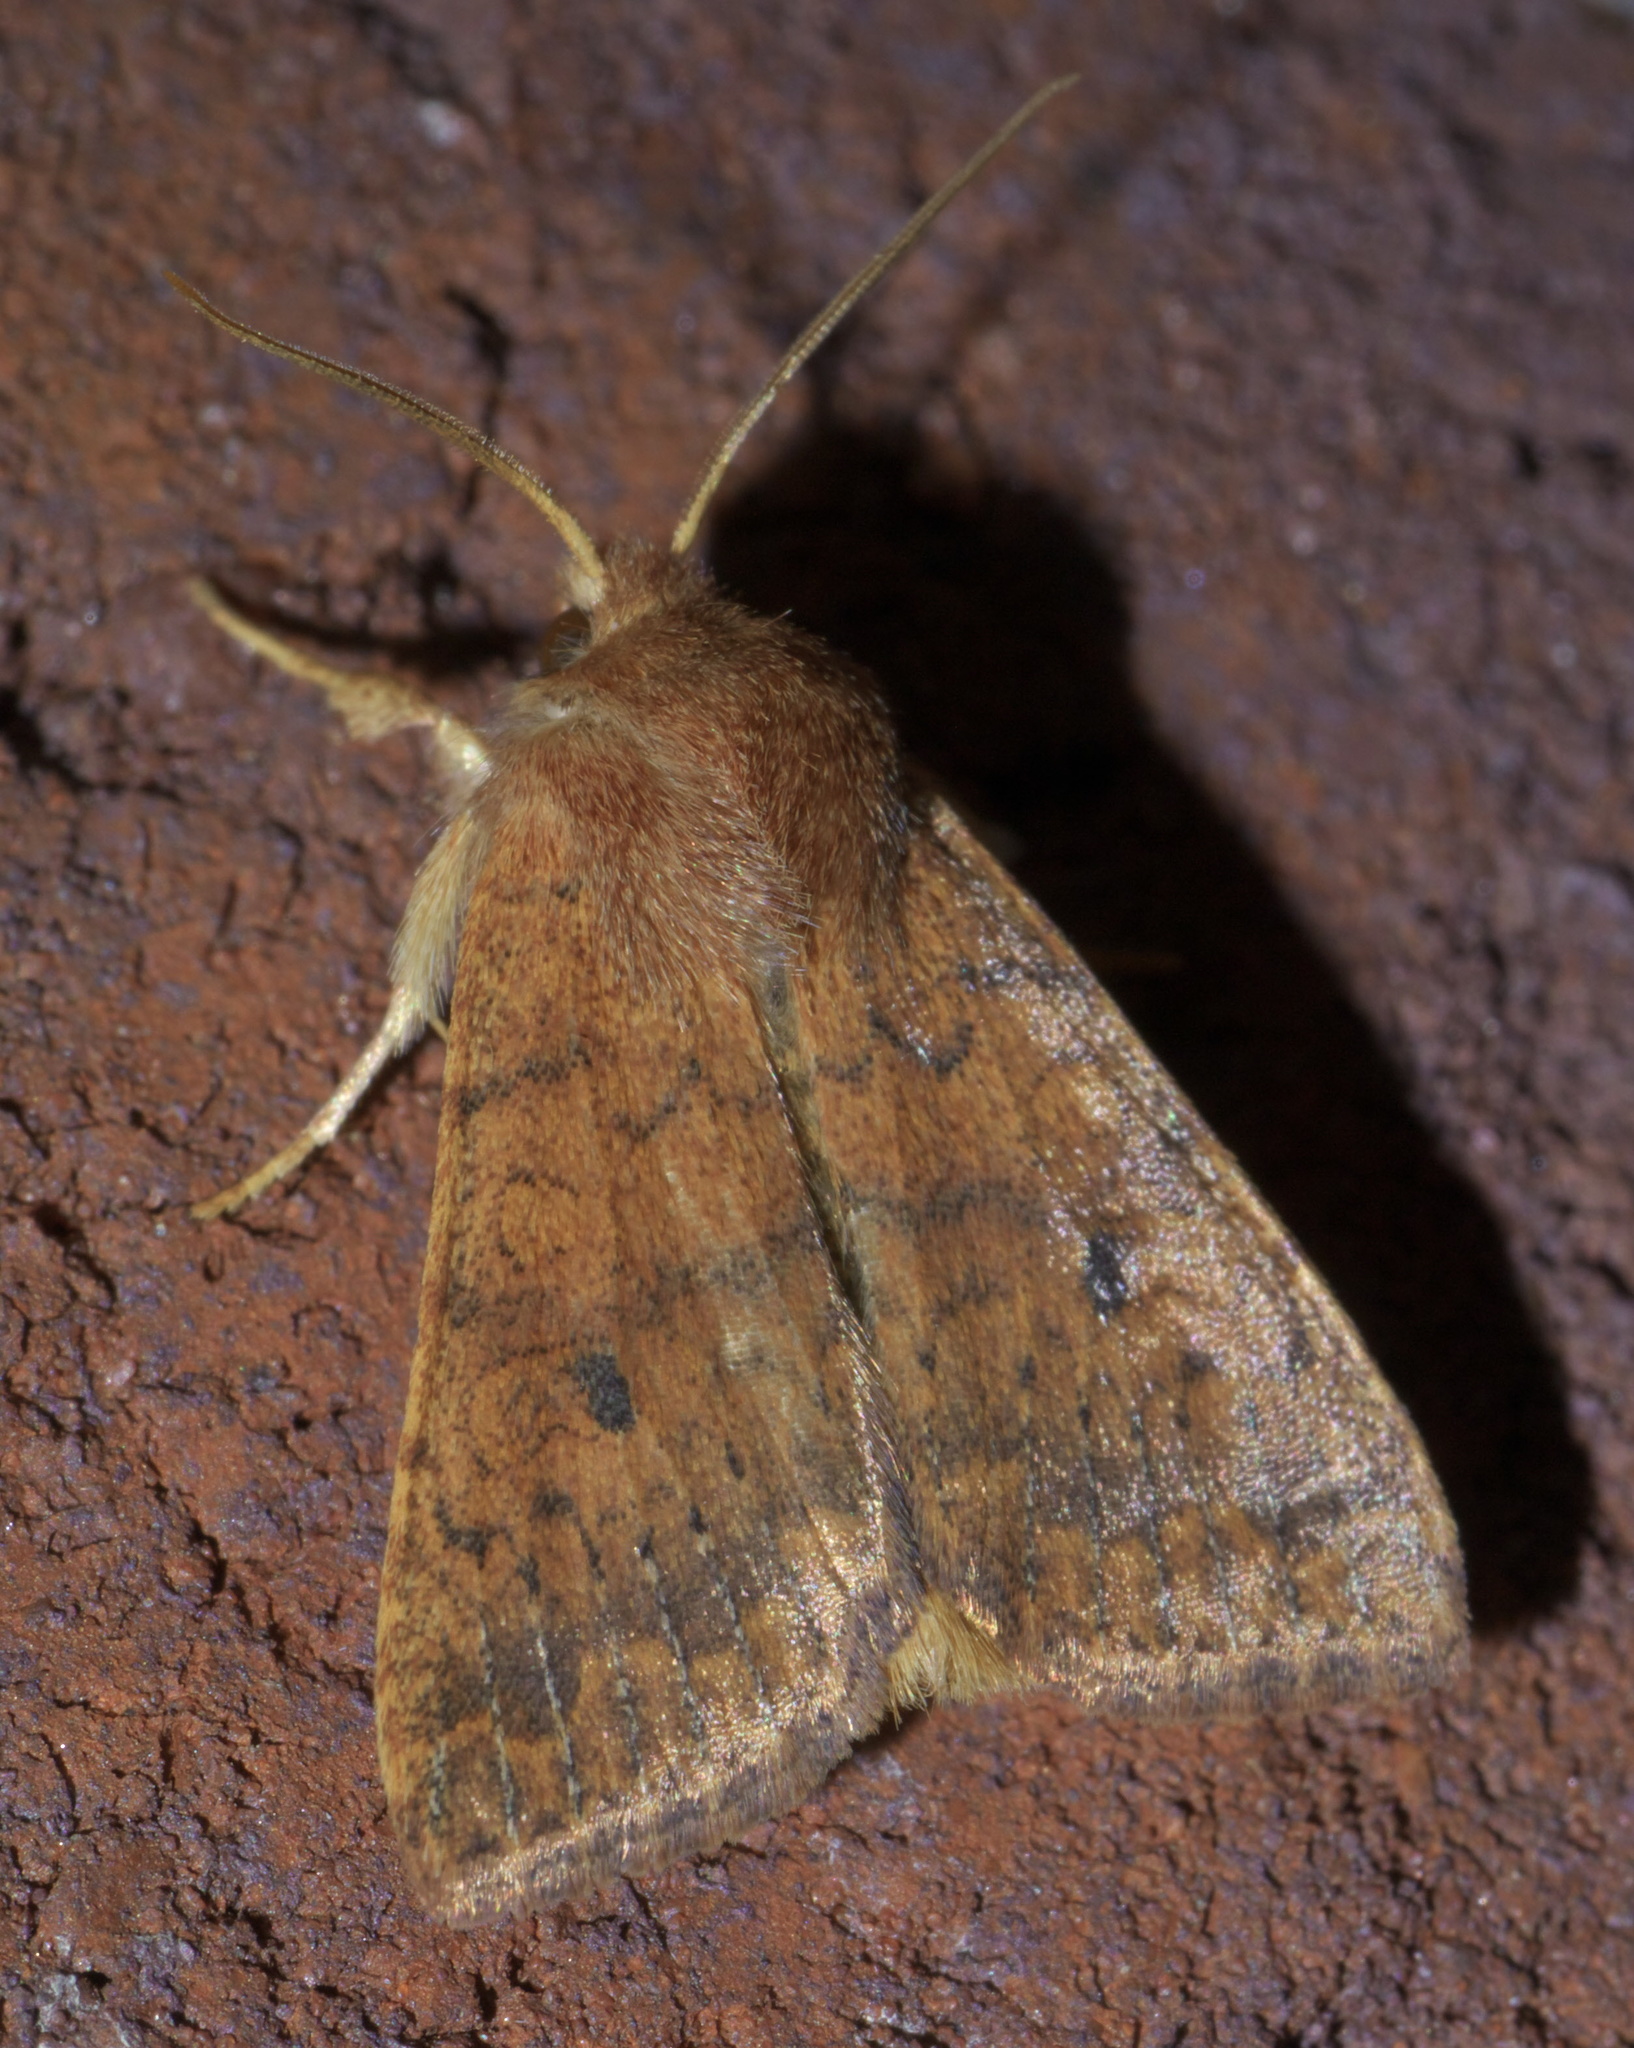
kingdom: Animalia
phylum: Arthropoda
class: Insecta
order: Lepidoptera
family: Noctuidae
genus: Agrochola
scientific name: Agrochola bicolorago
